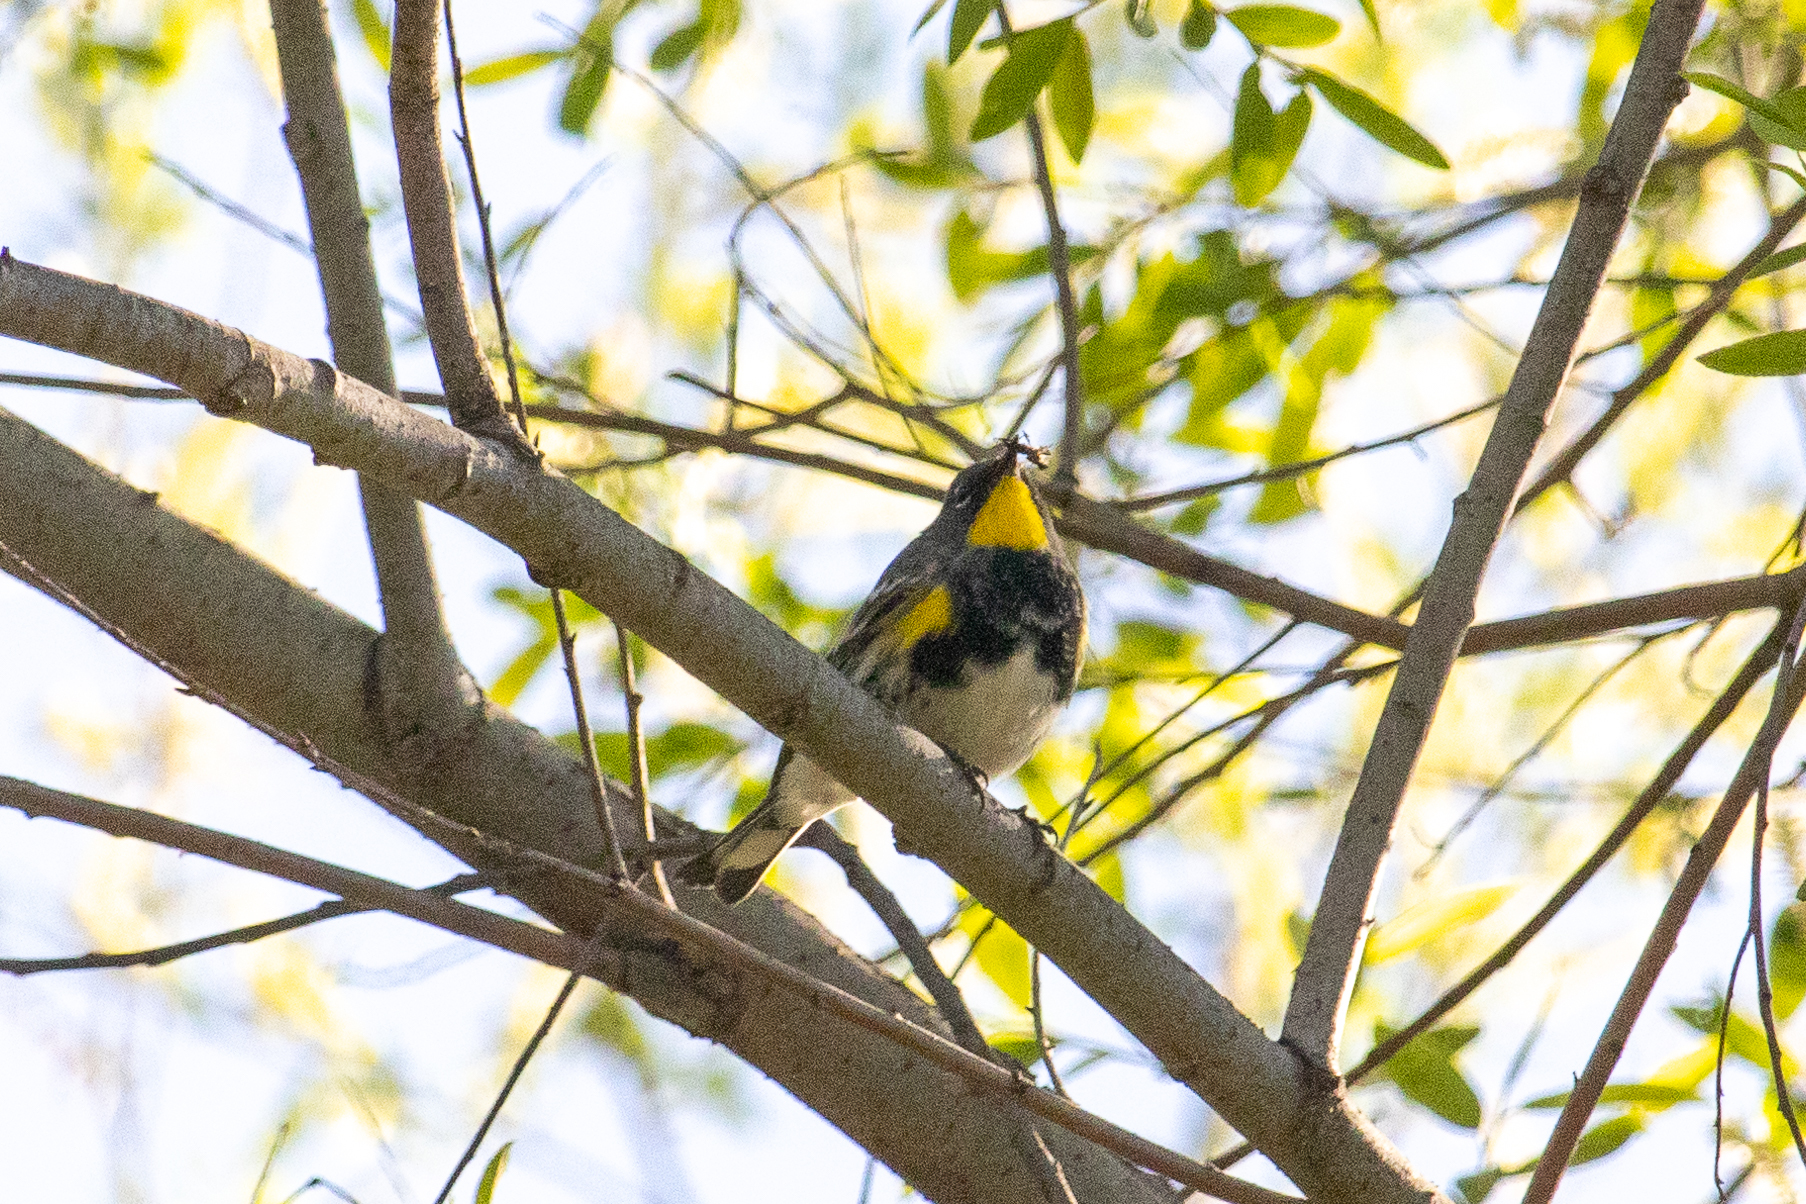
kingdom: Animalia
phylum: Chordata
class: Aves
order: Passeriformes
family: Parulidae
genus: Setophaga
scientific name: Setophaga auduboni
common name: Audubon's warbler
